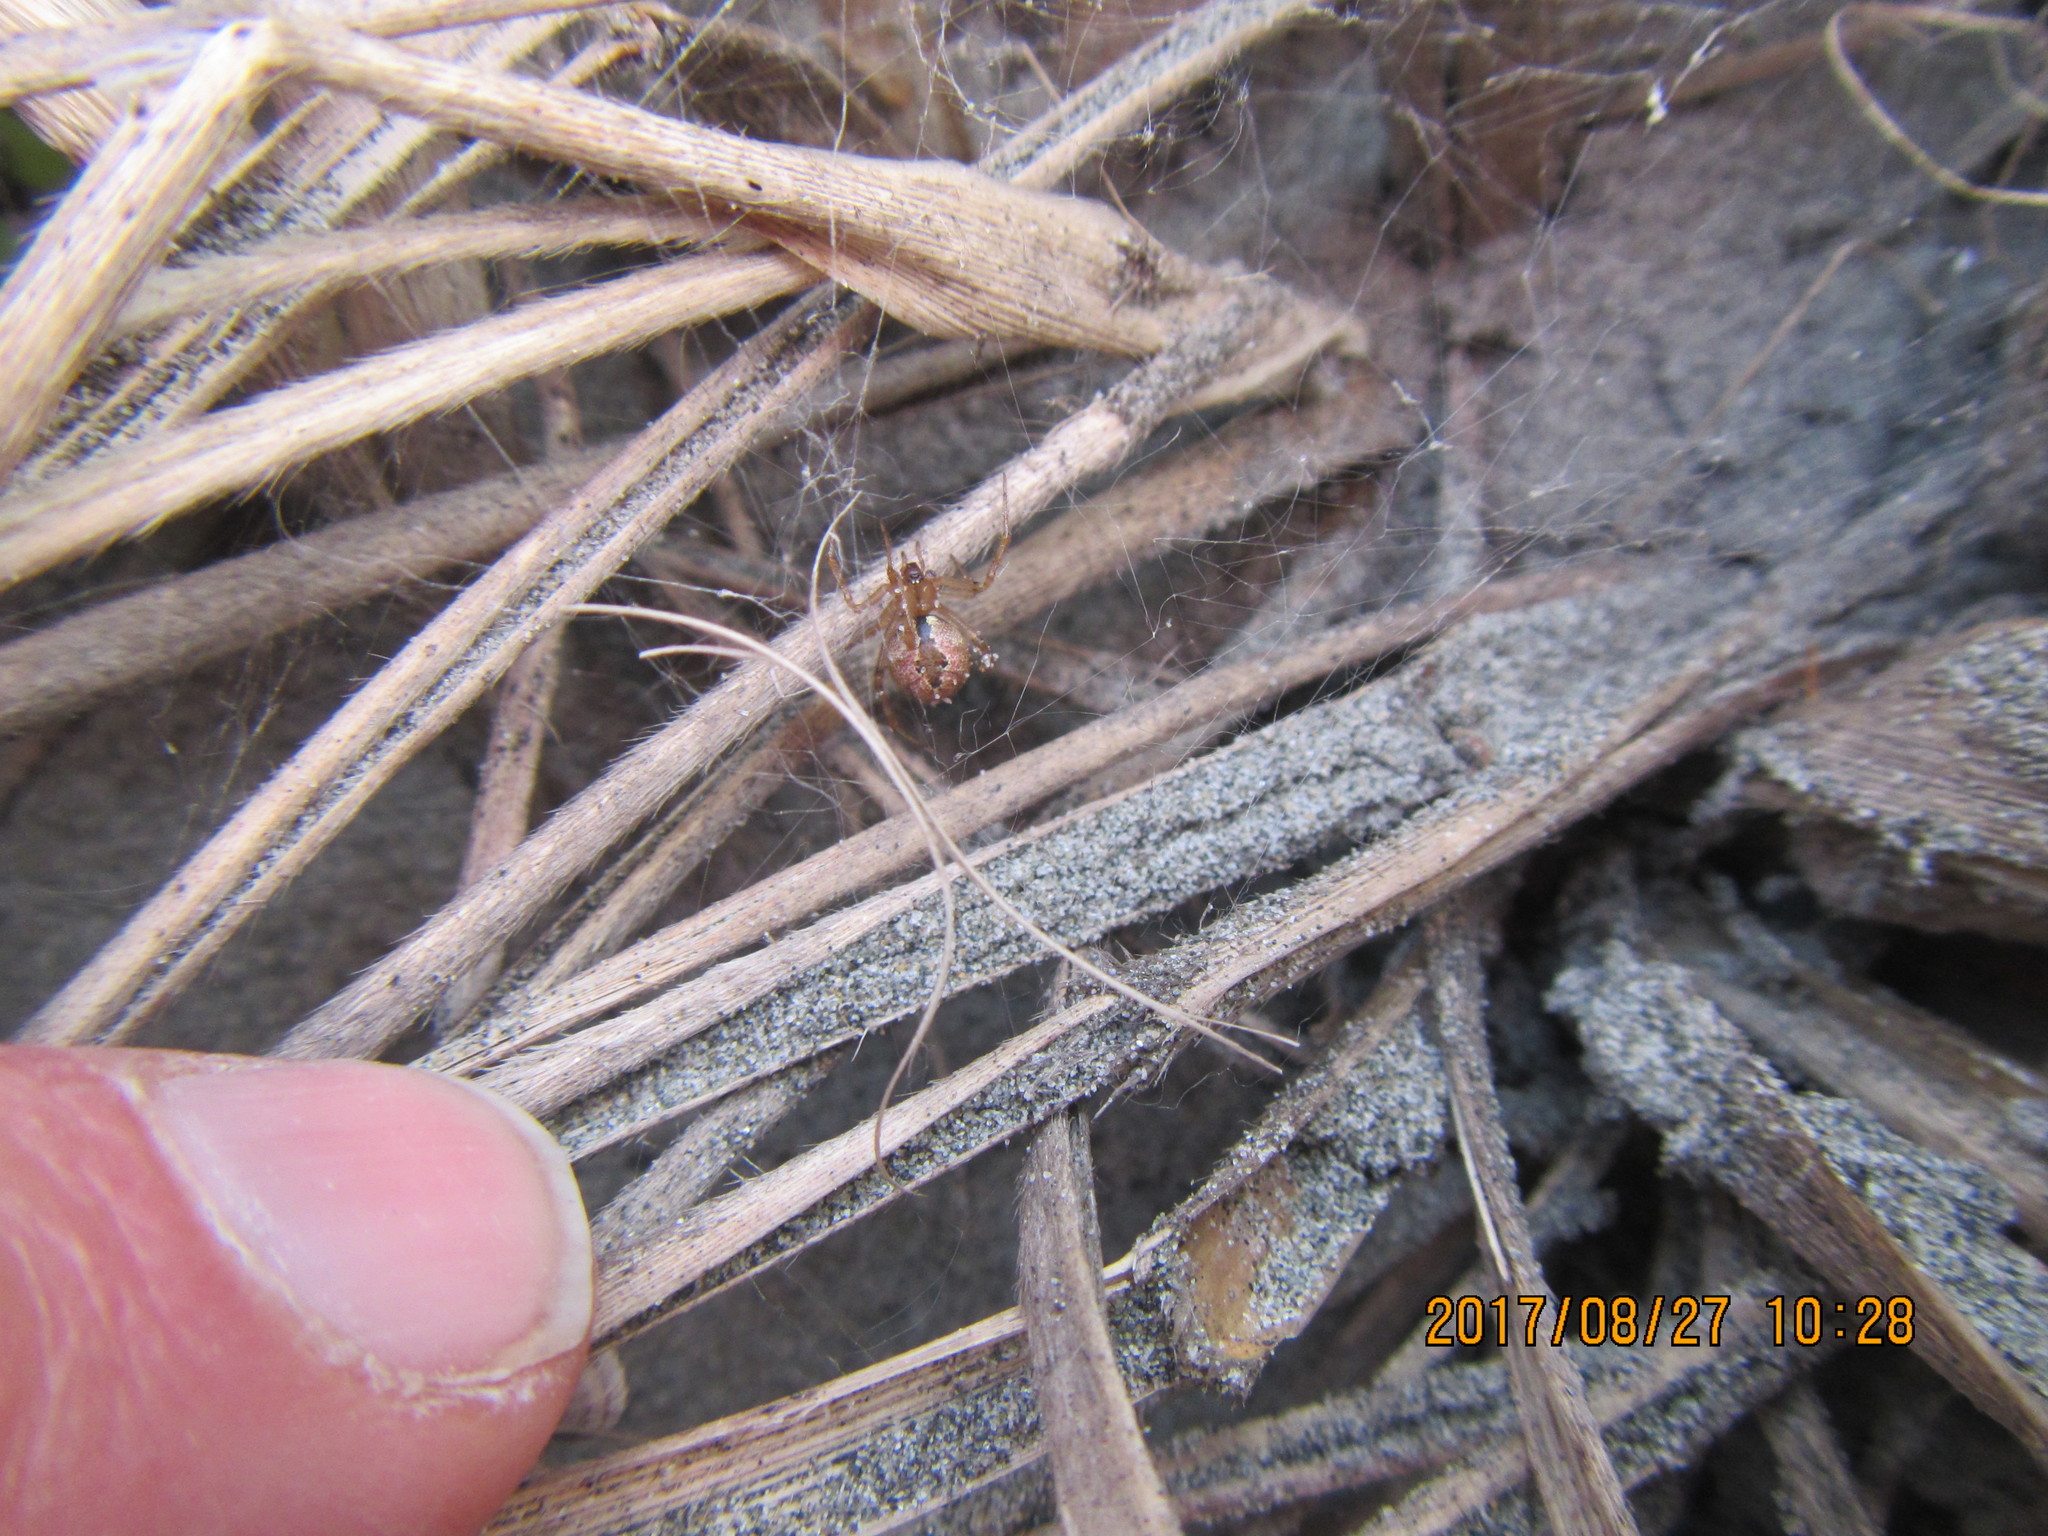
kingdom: Animalia
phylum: Arthropoda
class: Arachnida
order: Araneae
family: Theridiidae
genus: Cryptachaea
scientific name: Cryptachaea veruculata
